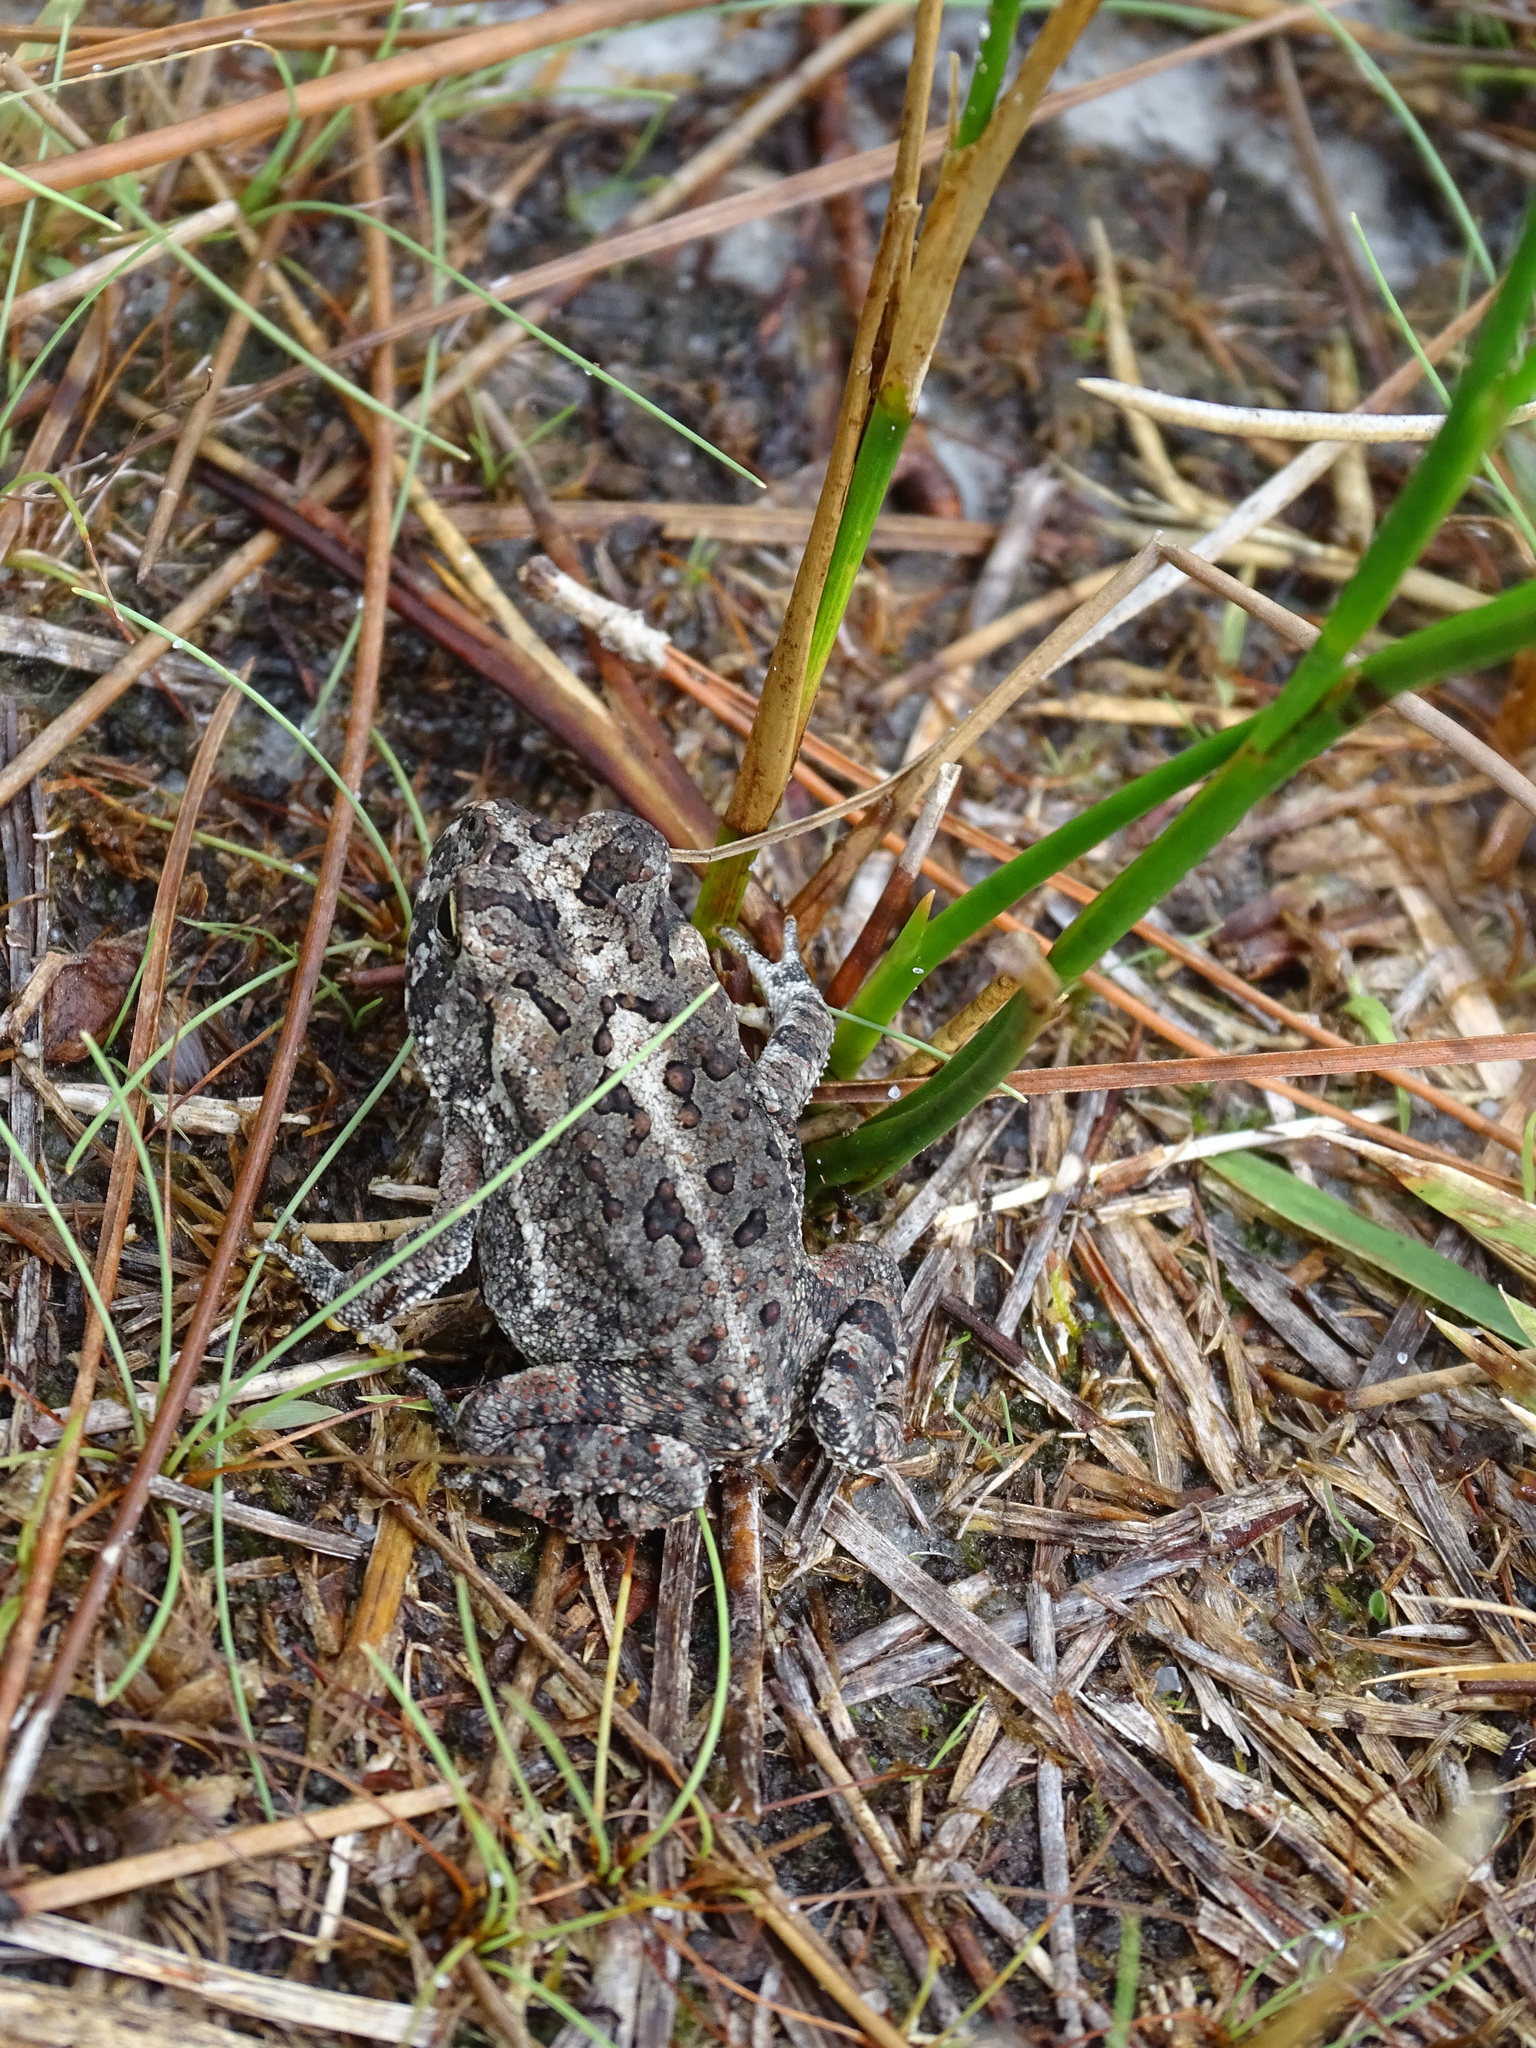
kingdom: Animalia
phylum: Chordata
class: Amphibia
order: Anura
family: Bufonidae
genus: Anaxyrus
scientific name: Anaxyrus terrestris
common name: Southern toad
